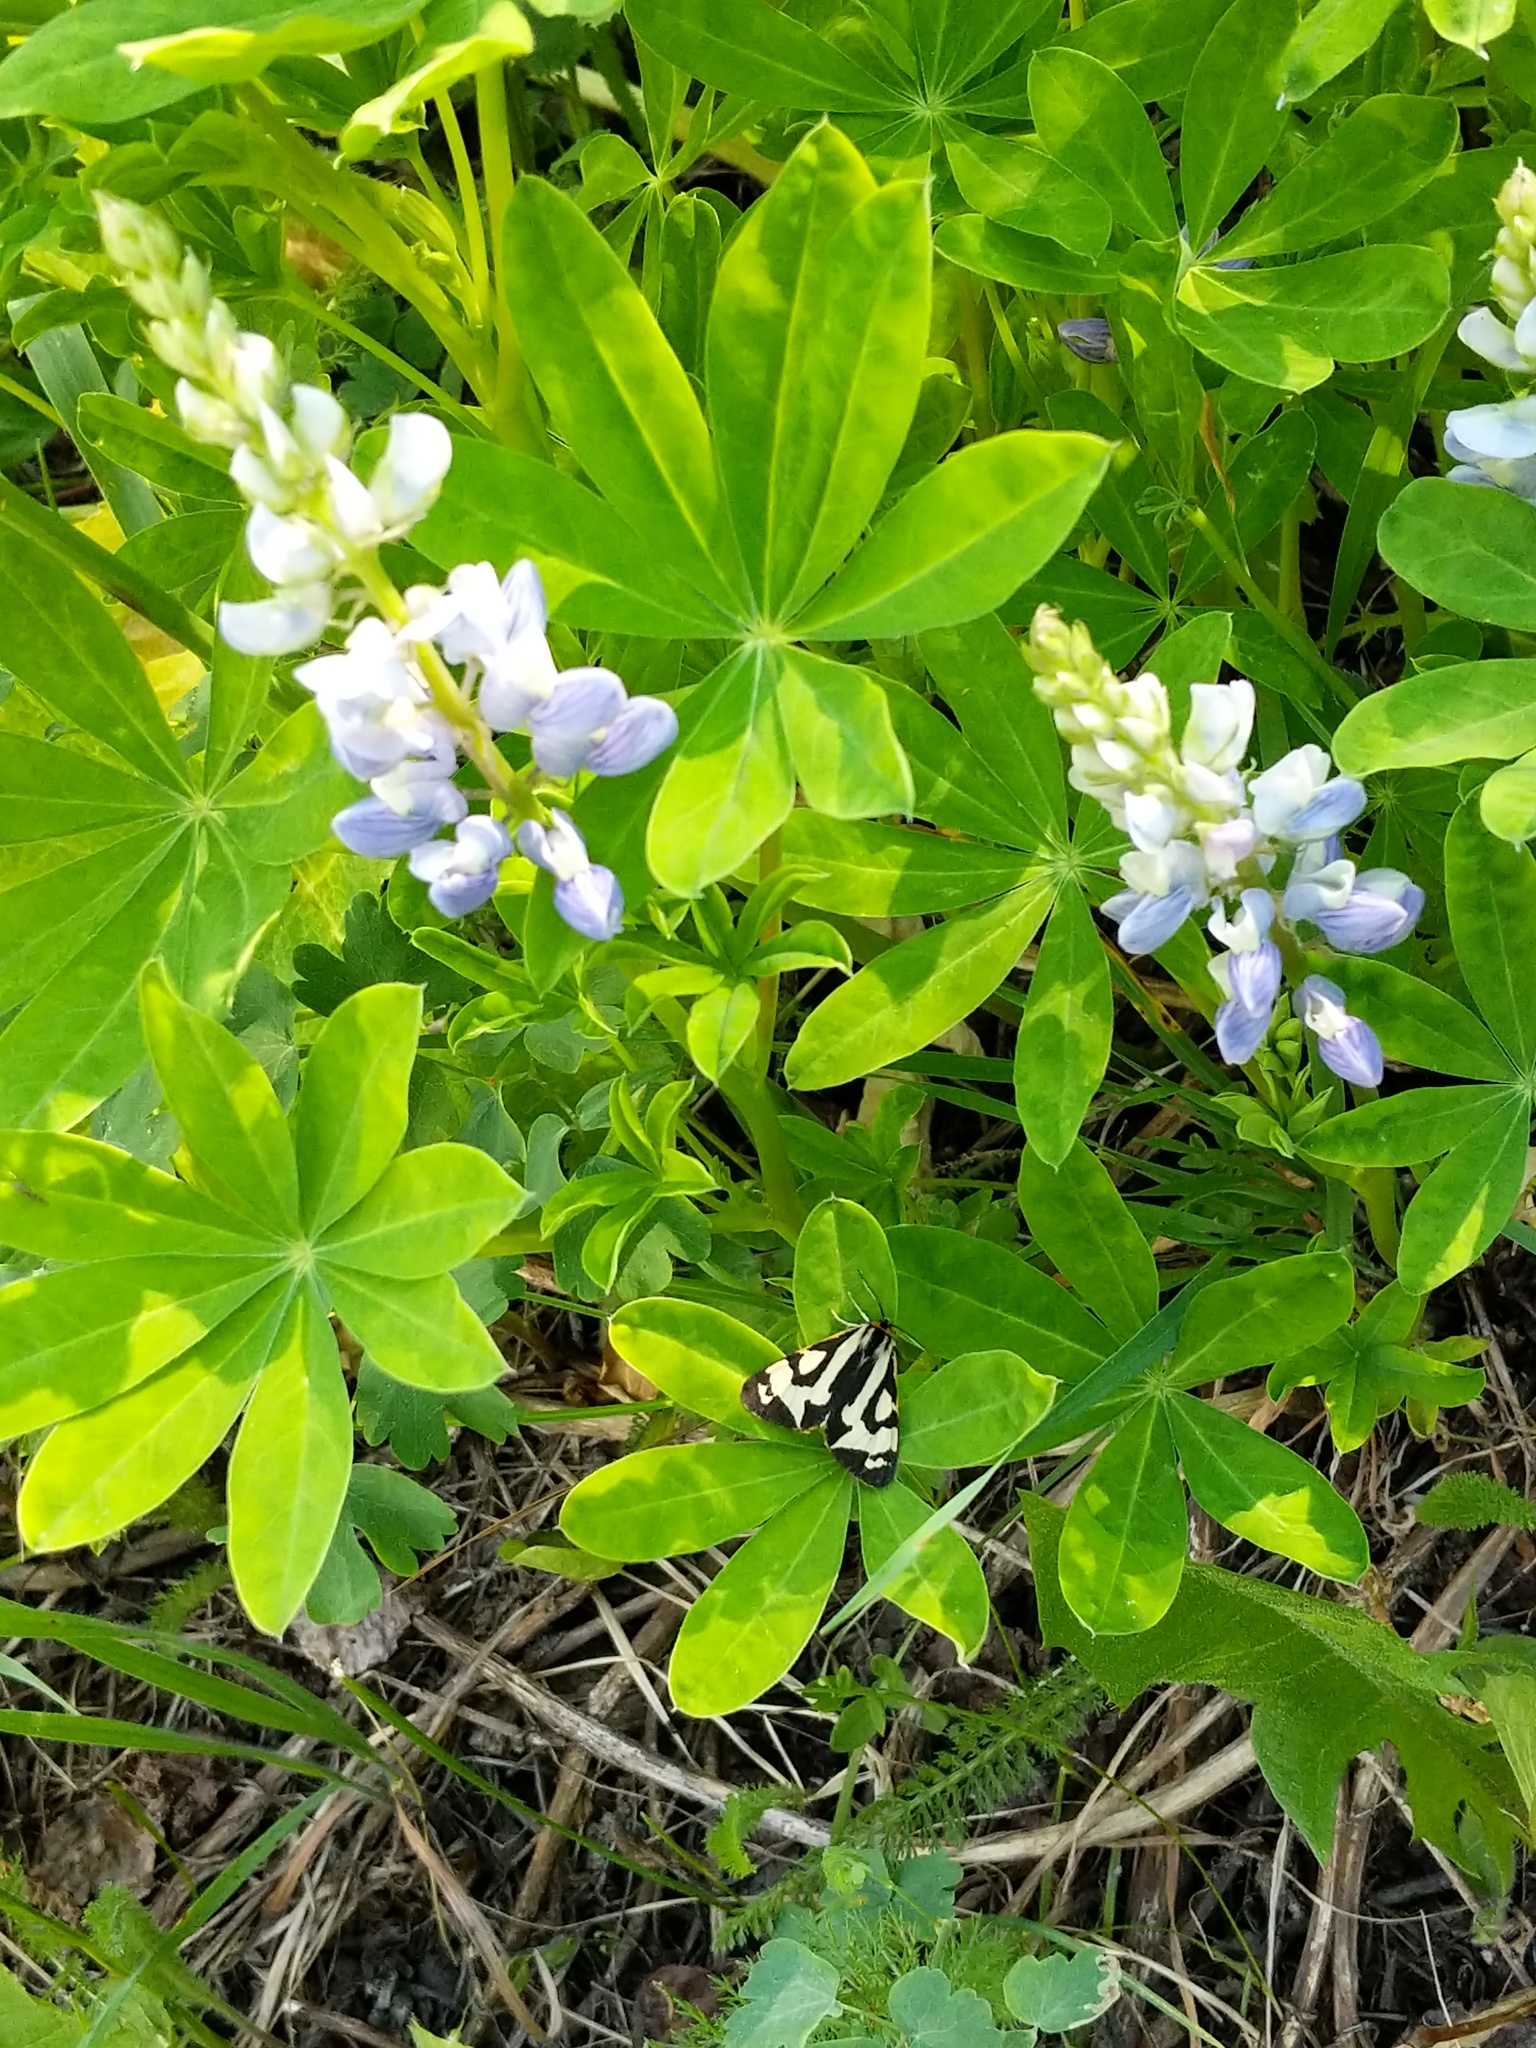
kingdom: Animalia
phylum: Arthropoda
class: Insecta
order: Lepidoptera
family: Erebidae
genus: Parasemia
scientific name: Parasemia plantaginis
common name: Wood tiger
